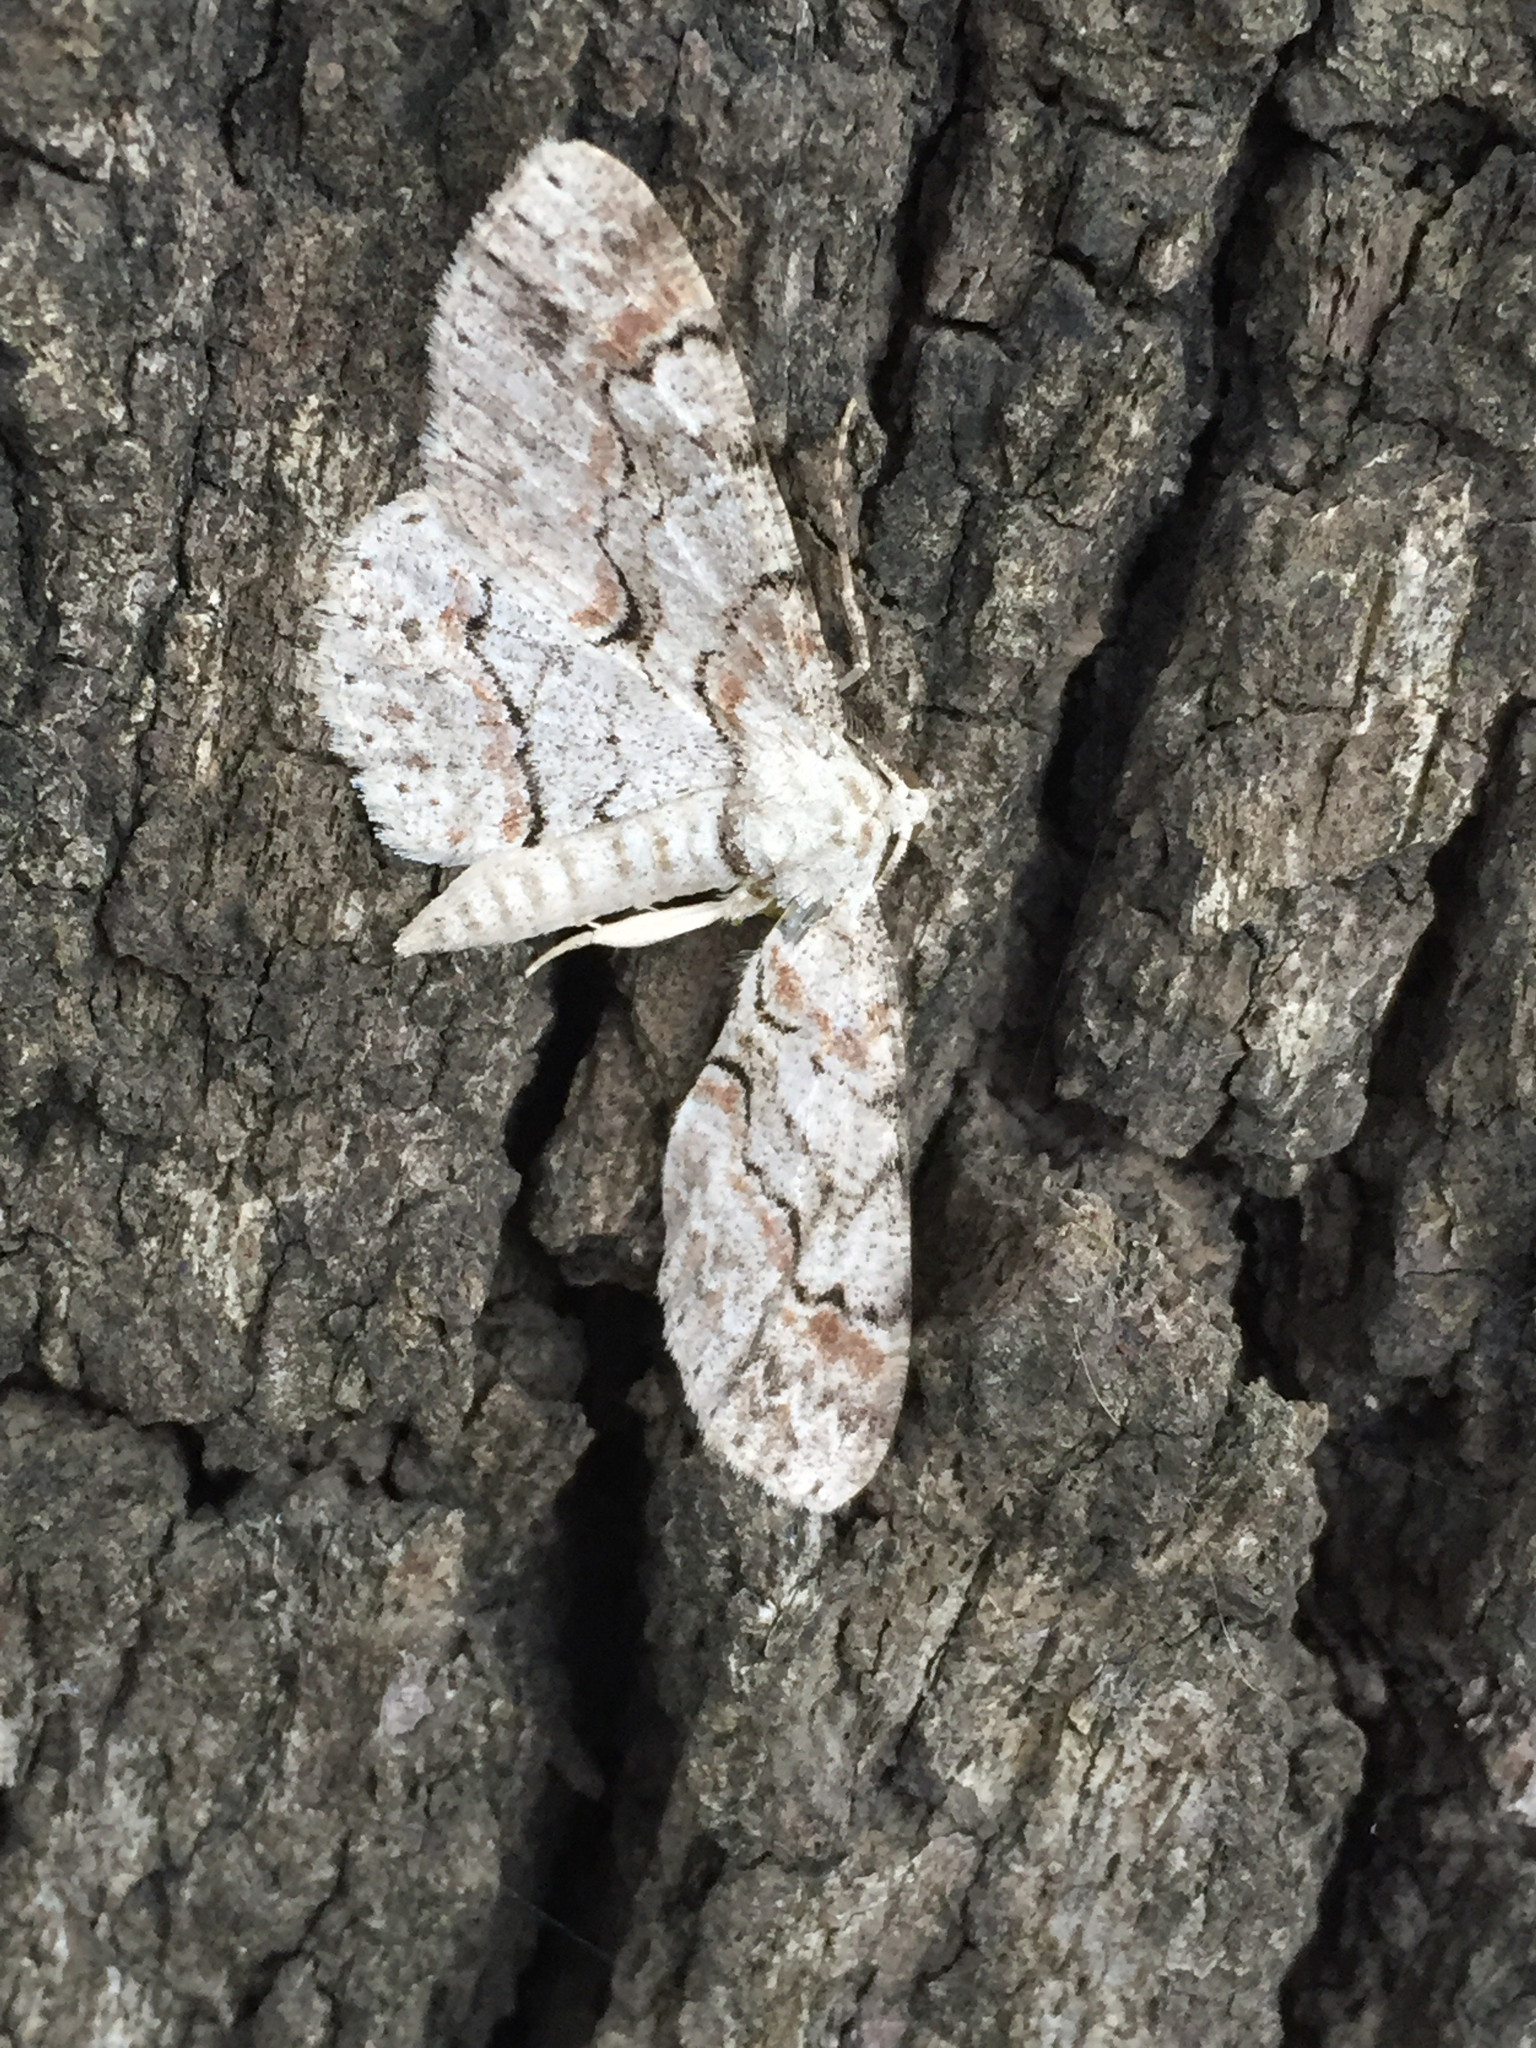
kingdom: Animalia
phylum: Arthropoda
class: Insecta
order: Lepidoptera
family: Geometridae
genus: Iridopsis
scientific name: Iridopsis defectaria
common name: Brown-shaded gray
